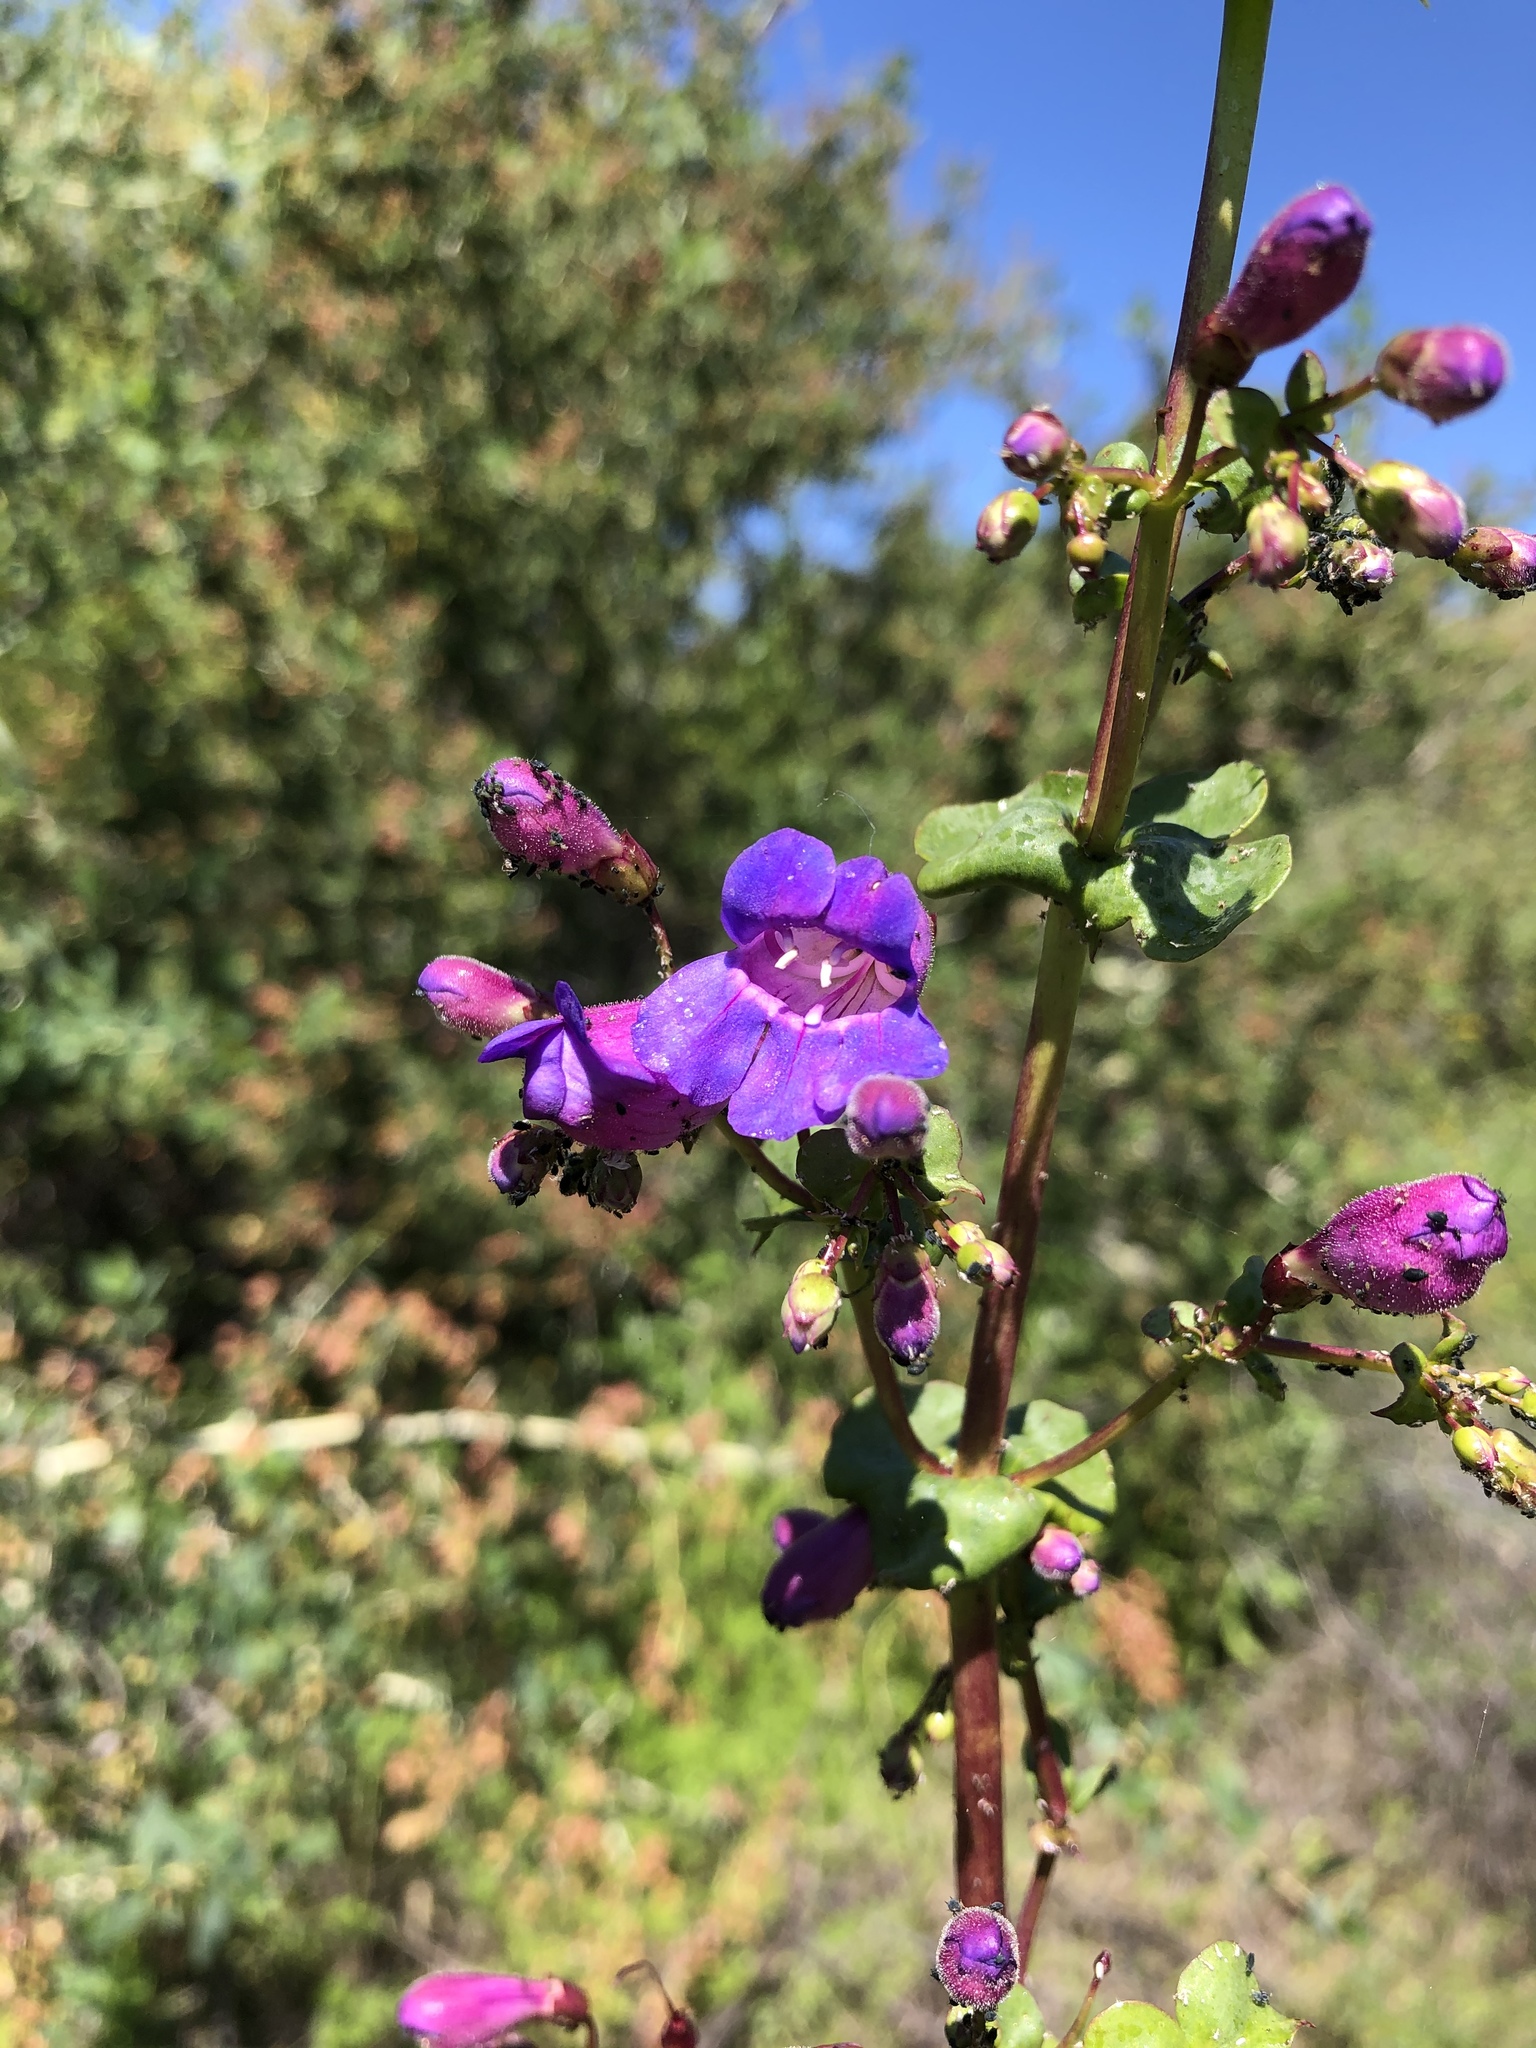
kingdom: Plantae
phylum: Tracheophyta
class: Magnoliopsida
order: Lamiales
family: Plantaginaceae
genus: Penstemon
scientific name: Penstemon spectabilis
